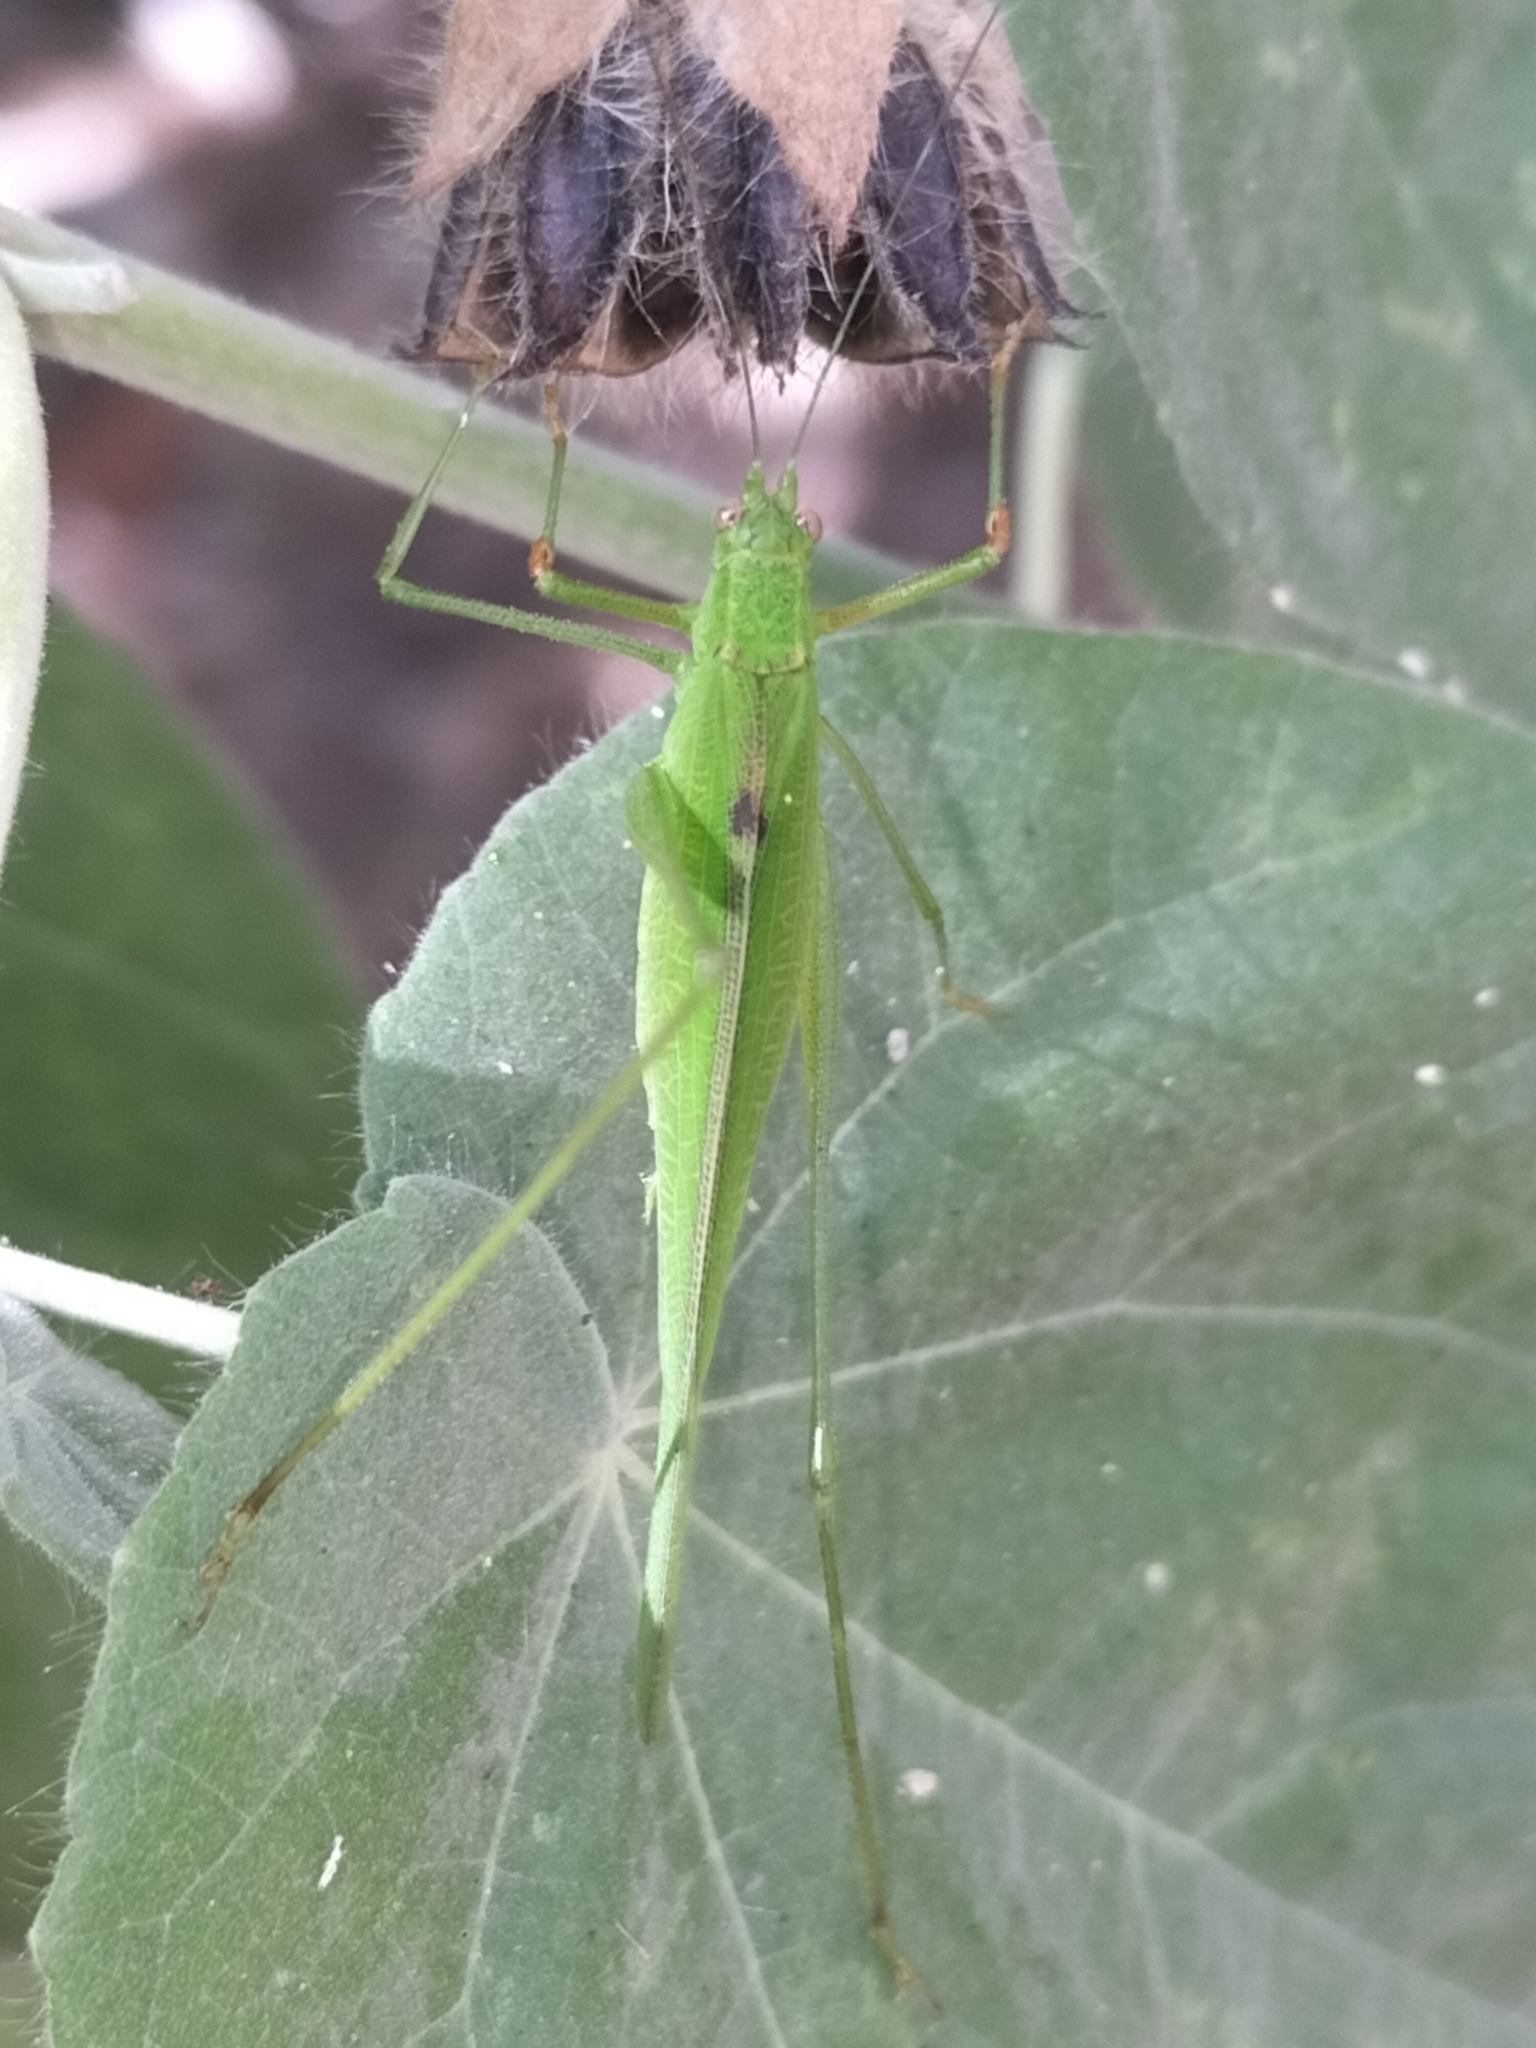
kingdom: Animalia
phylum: Arthropoda
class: Insecta
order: Orthoptera
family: Tettigoniidae
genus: Phaneroptera
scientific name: Phaneroptera brevis
